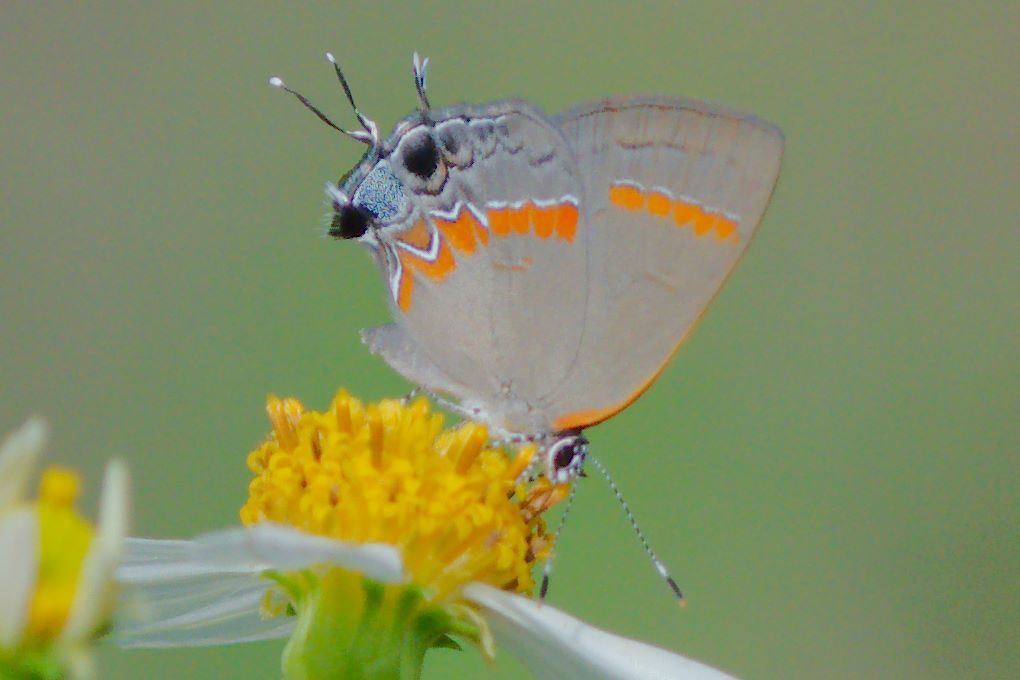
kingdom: Animalia
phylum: Arthropoda
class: Insecta
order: Lepidoptera
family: Lycaenidae
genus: Calycopis
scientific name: Calycopis cecrops
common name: Red-banded hairstreak
